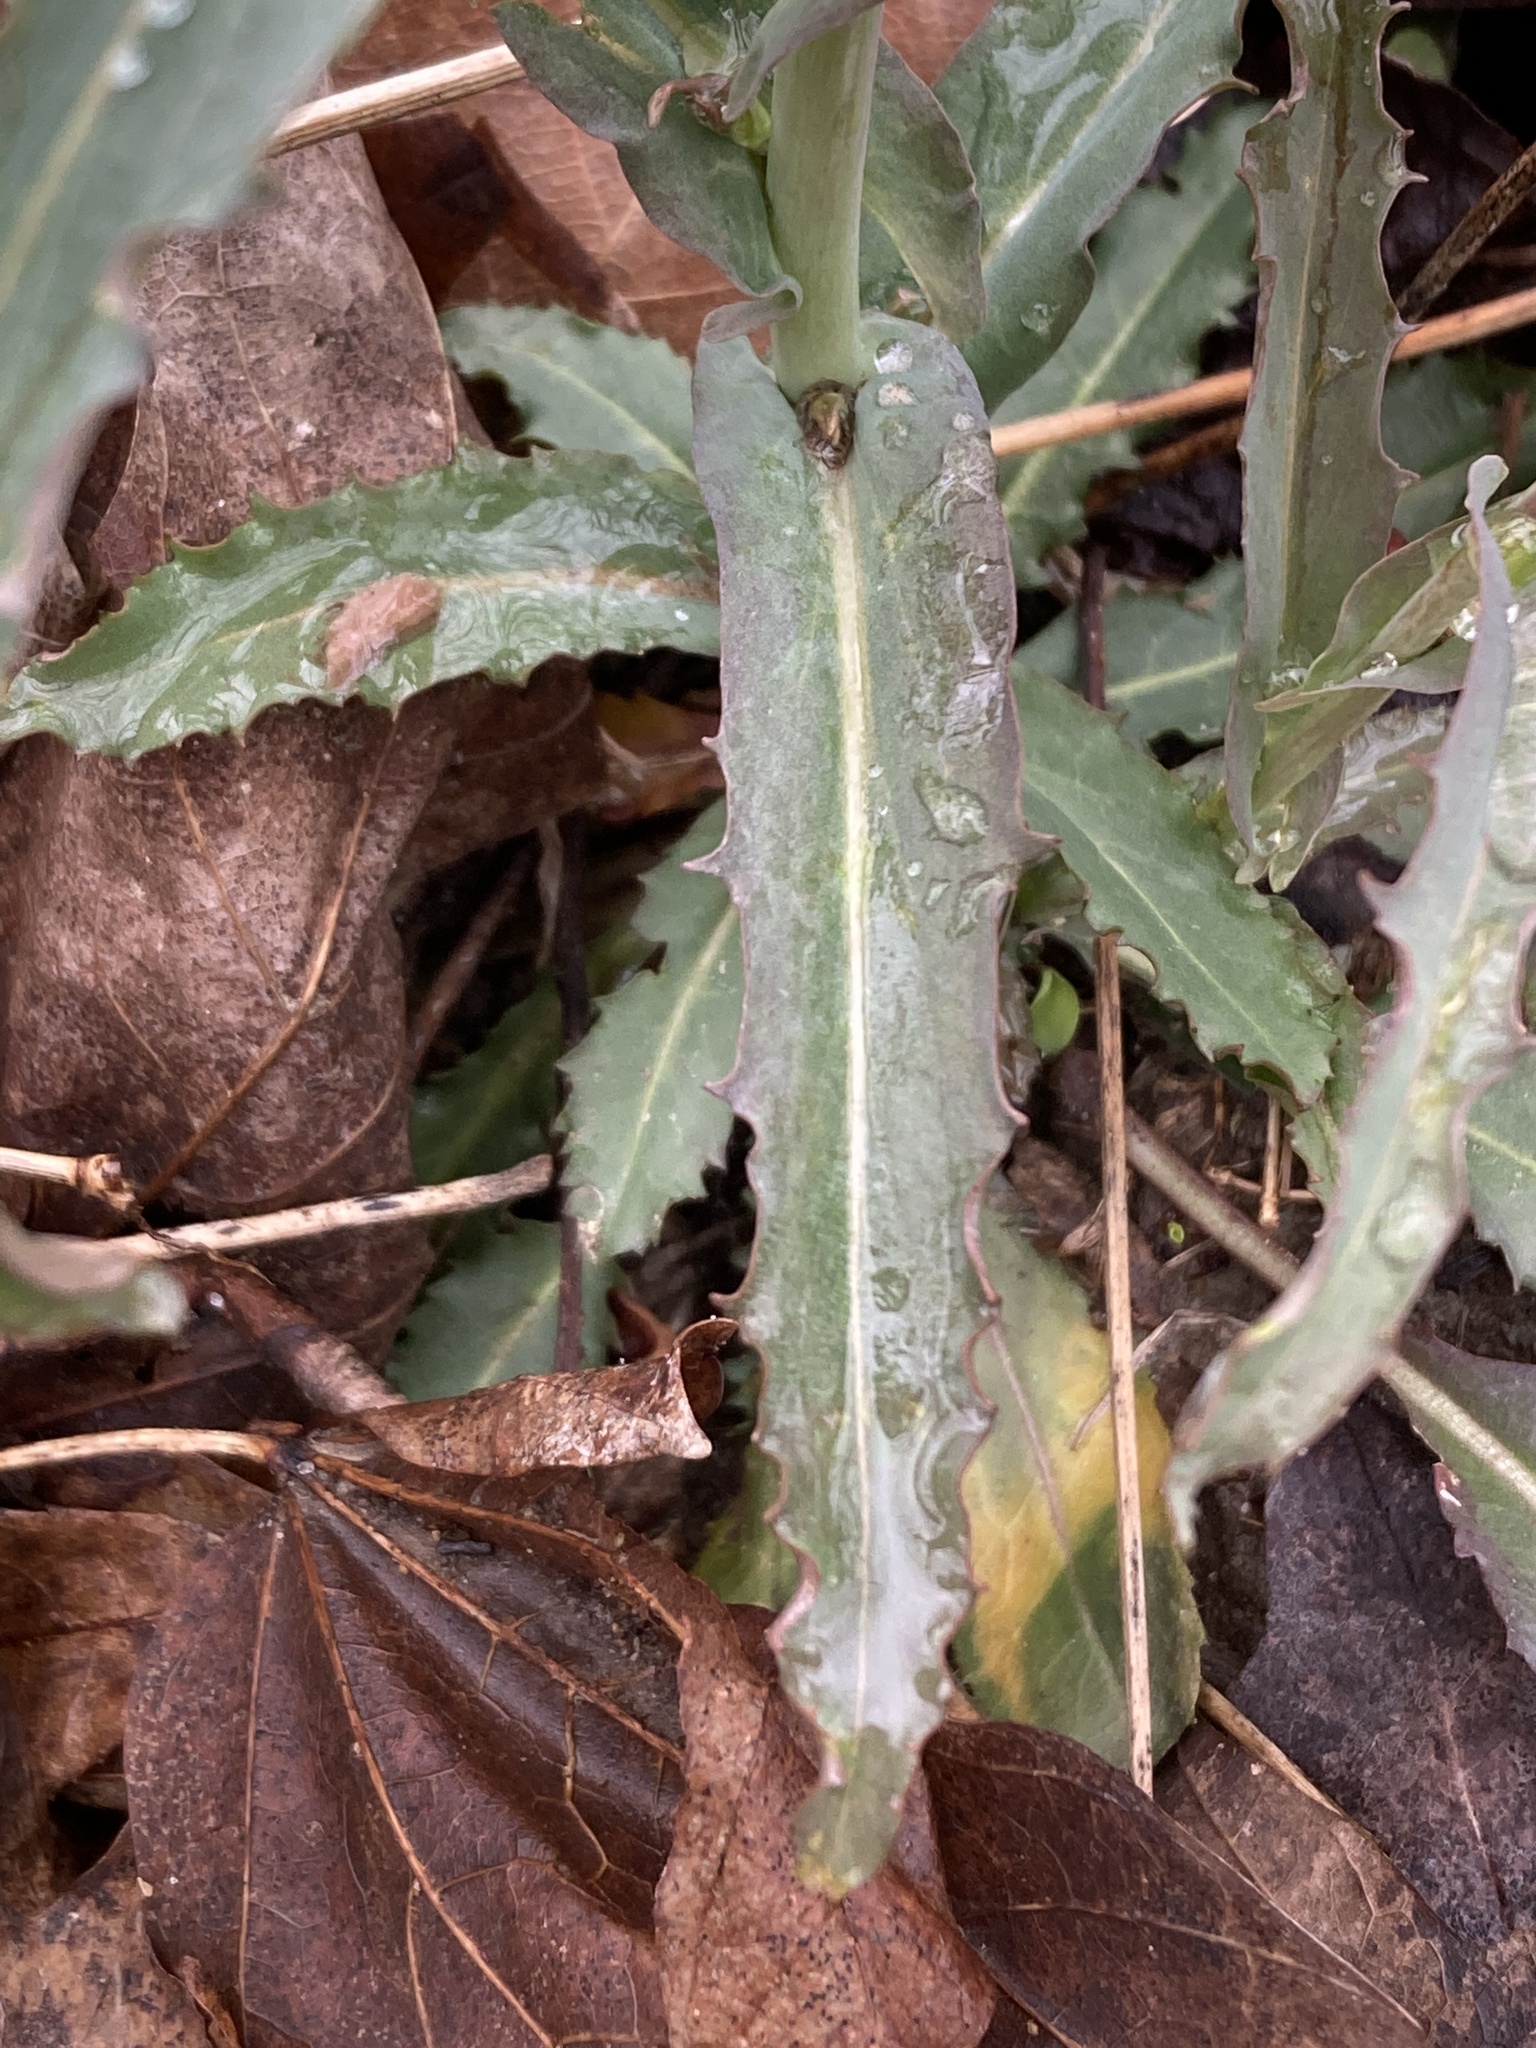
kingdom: Plantae
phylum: Tracheophyta
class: Magnoliopsida
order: Brassicales
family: Brassicaceae
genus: Borodinia
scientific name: Borodinia laevigata
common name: Smooth rockcress
